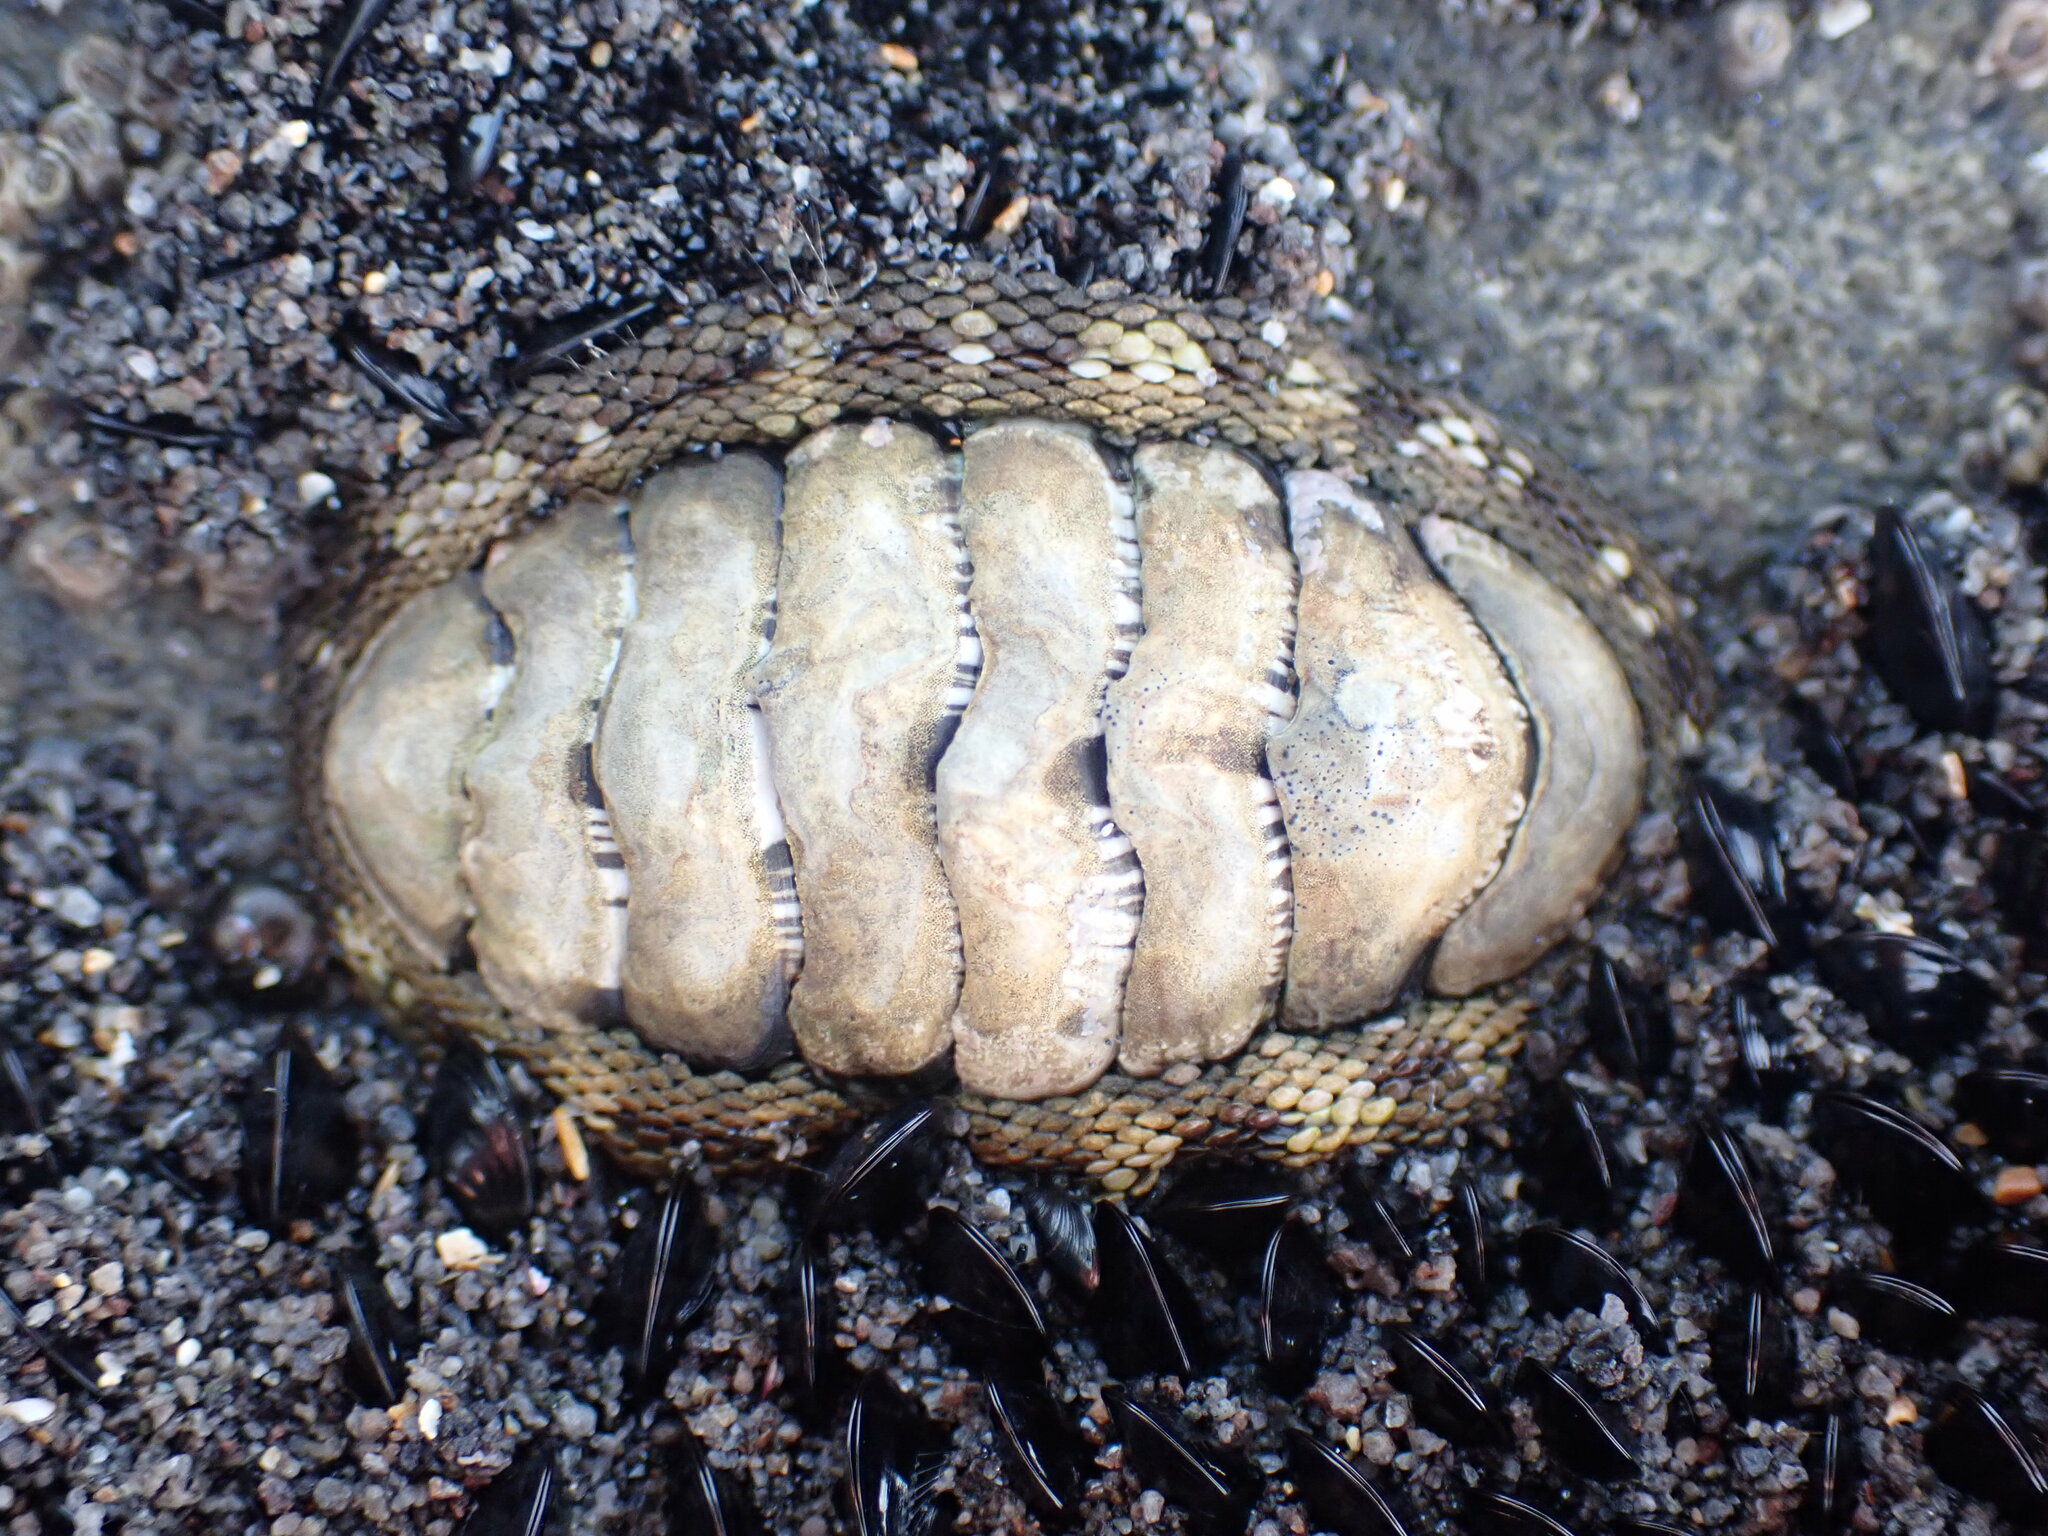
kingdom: Animalia
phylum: Mollusca
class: Polyplacophora
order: Chitonida
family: Chitonidae
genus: Sypharochiton
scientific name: Sypharochiton pelliserpentis
